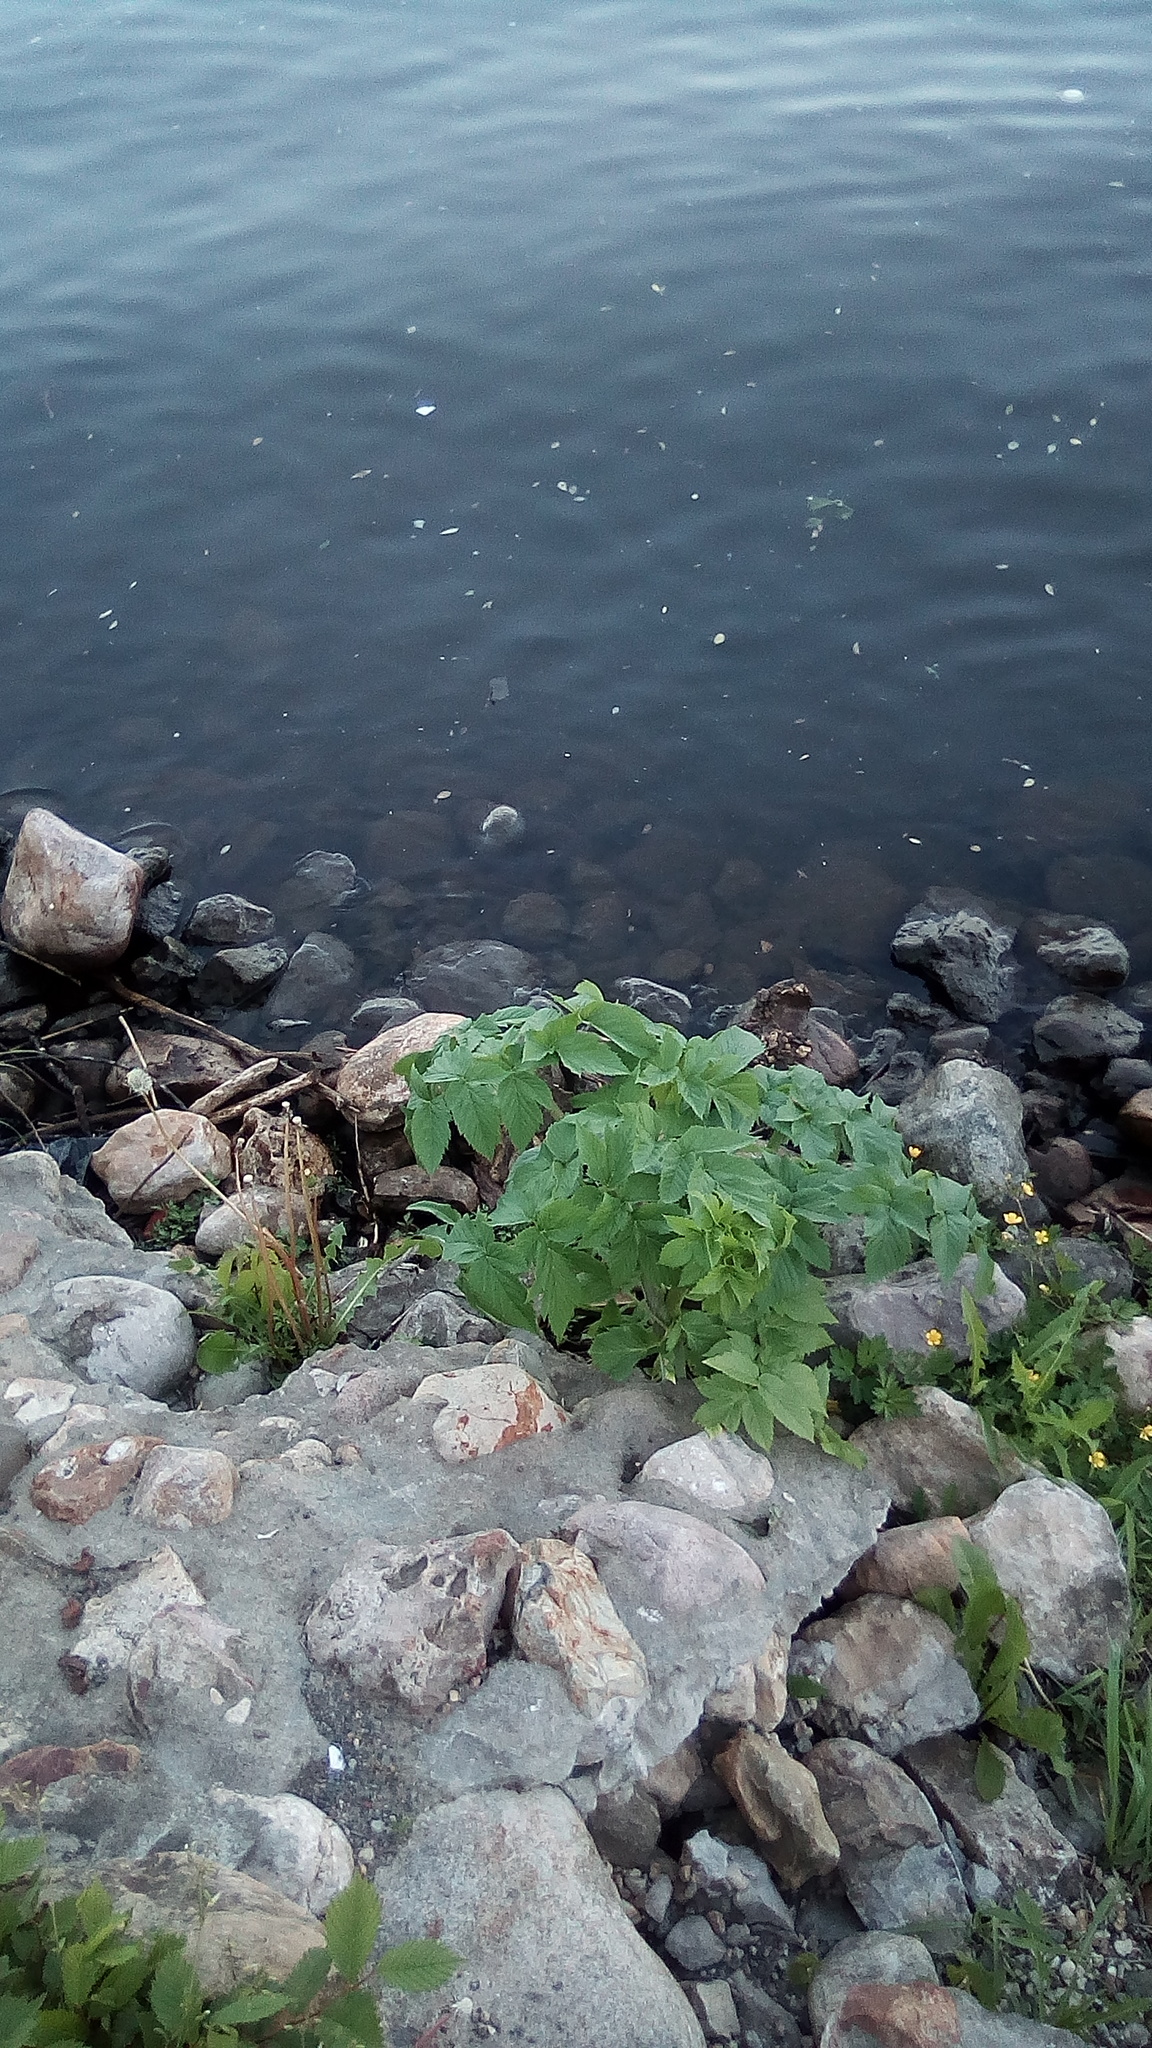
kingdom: Plantae
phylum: Tracheophyta
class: Magnoliopsida
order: Apiales
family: Apiaceae
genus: Angelica
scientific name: Angelica archangelica
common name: Garden angelica
